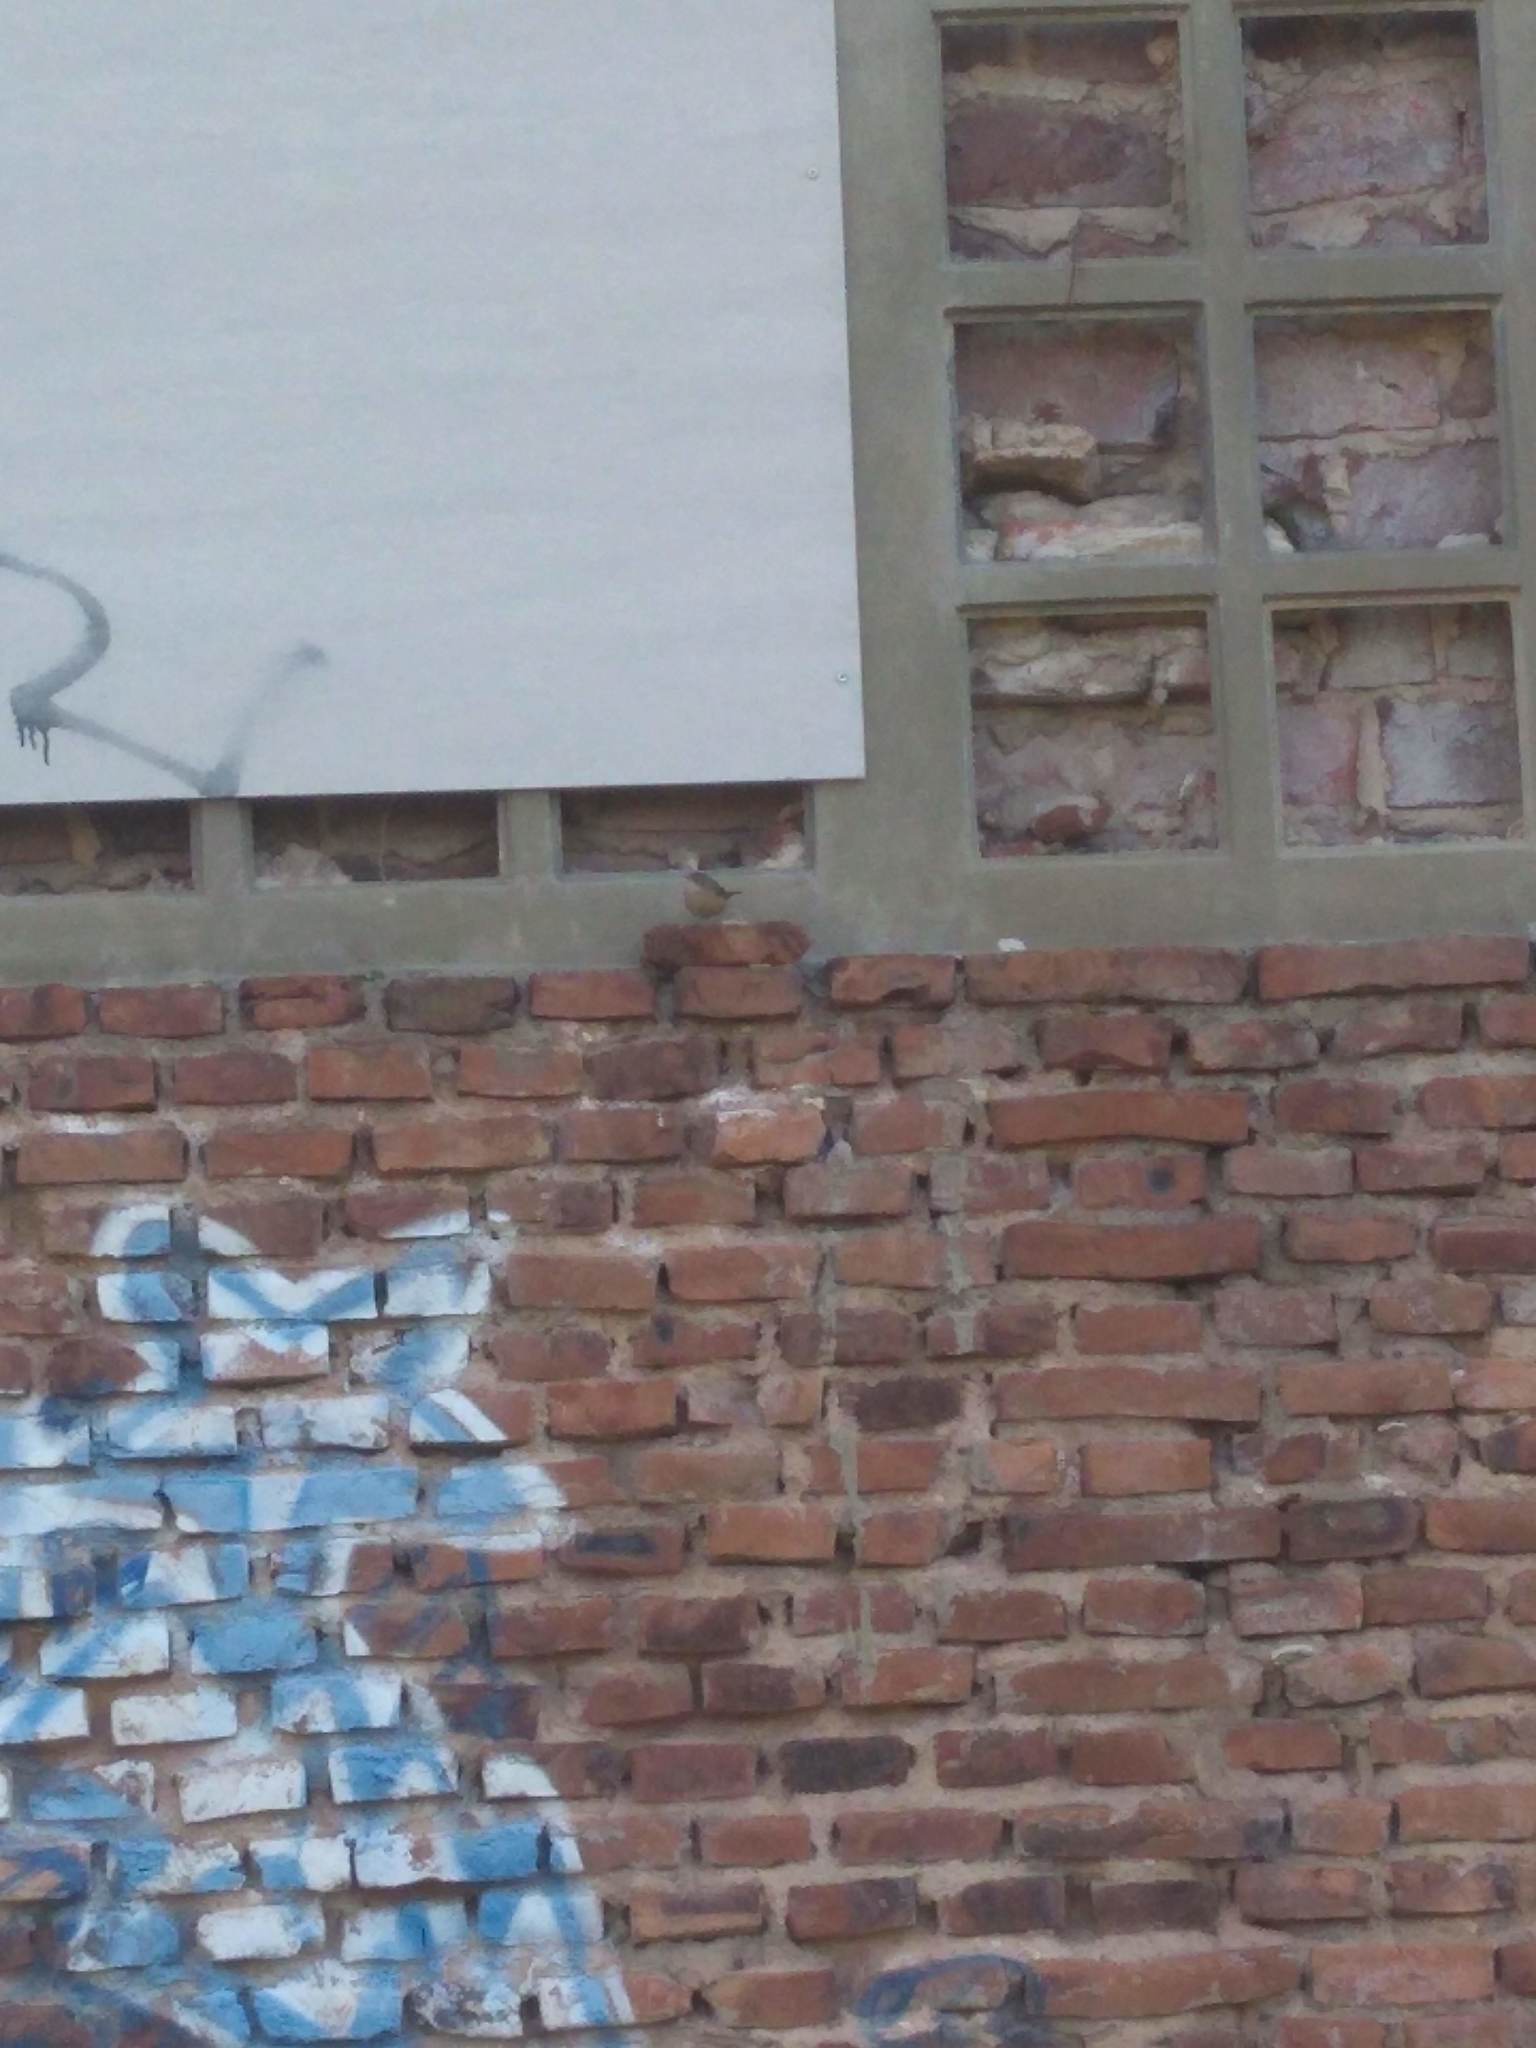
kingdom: Animalia
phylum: Chordata
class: Aves
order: Passeriformes
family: Troglodytidae
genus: Troglodytes
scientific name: Troglodytes aedon
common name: House wren
